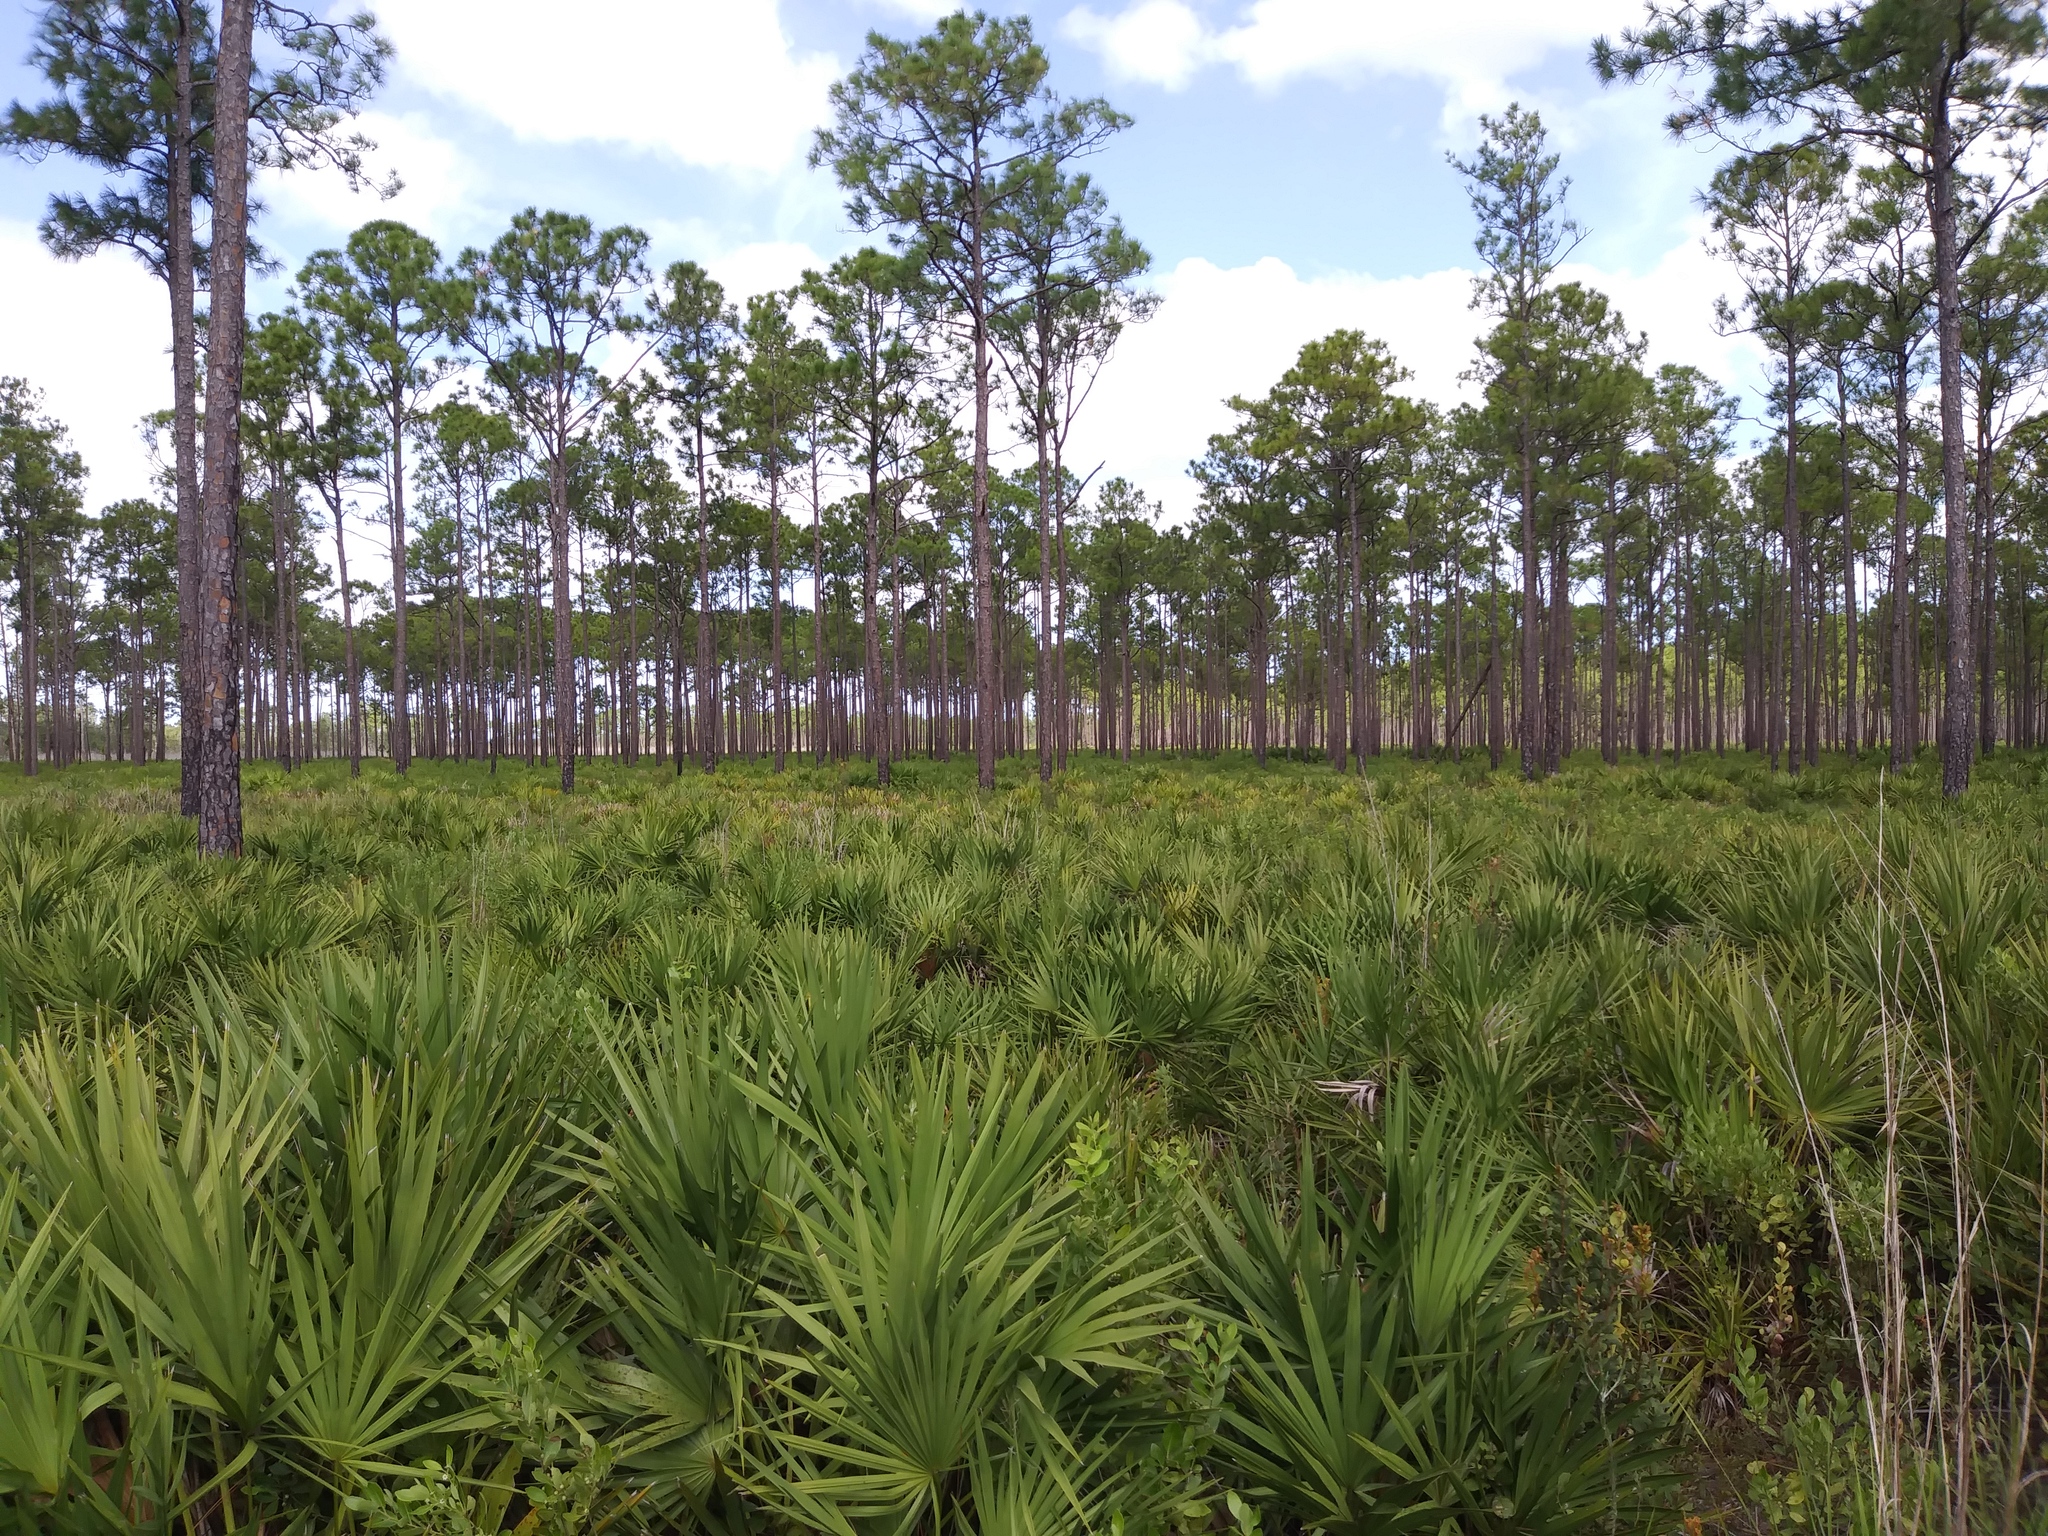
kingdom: Plantae
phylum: Tracheophyta
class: Pinopsida
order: Pinales
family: Pinaceae
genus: Pinus
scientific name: Pinus elliottii
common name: Slash pine
